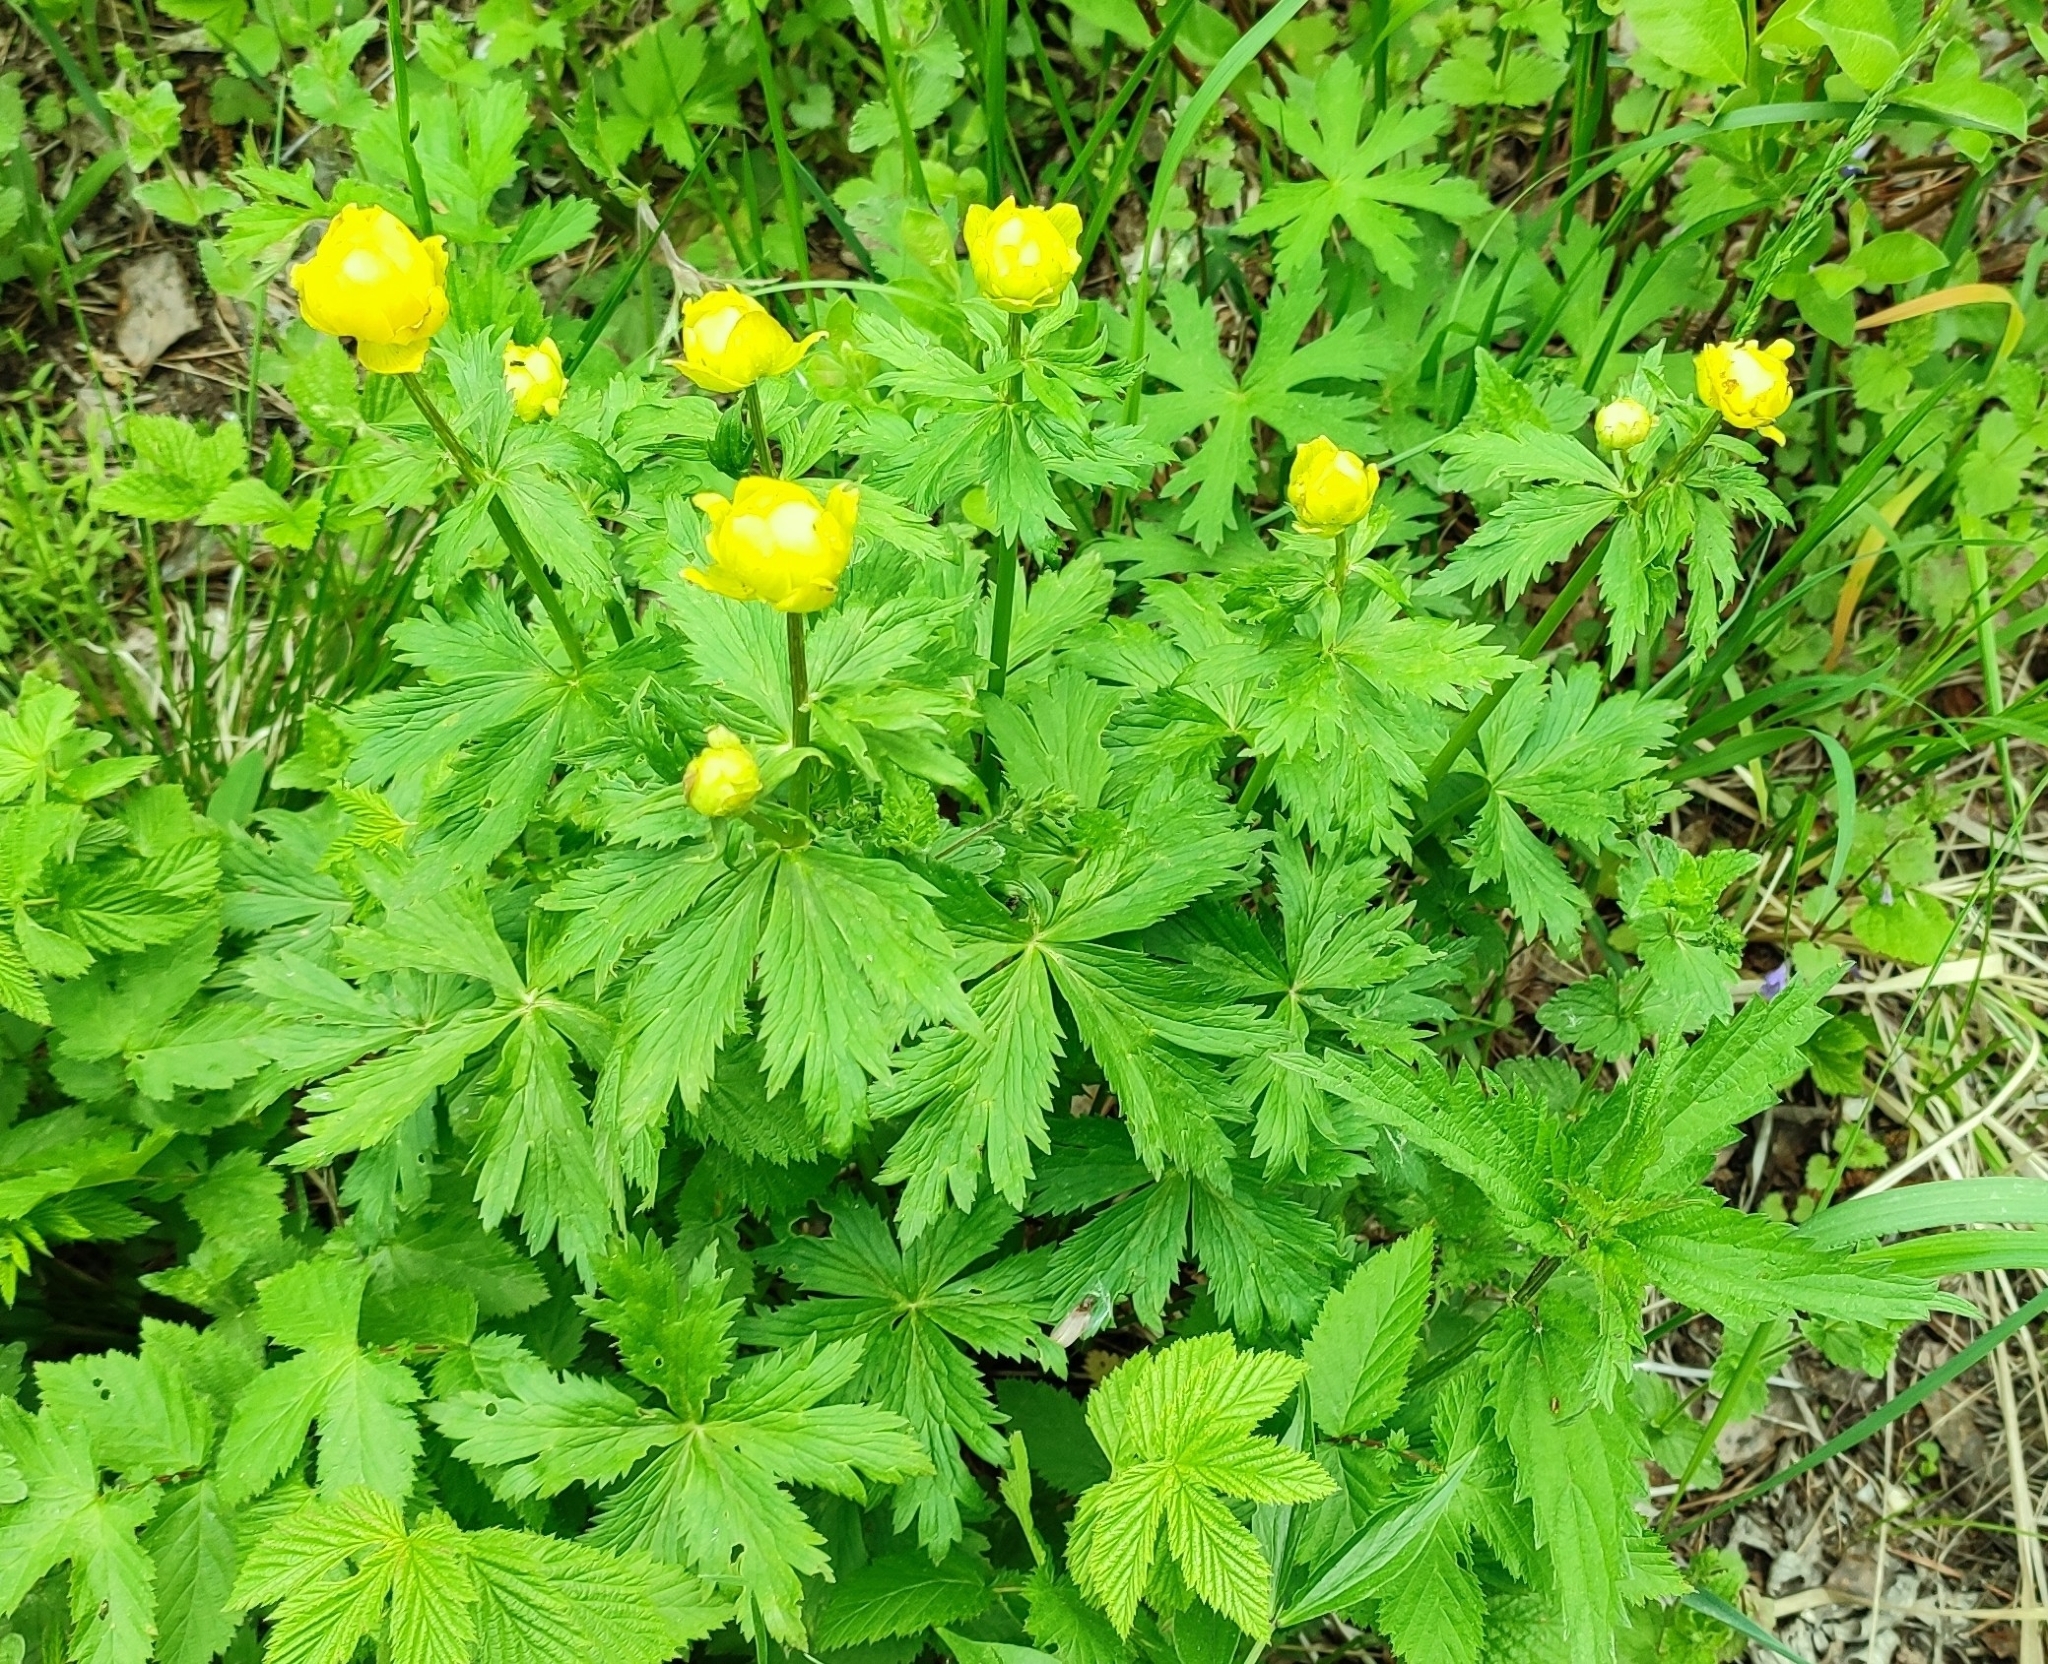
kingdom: Plantae
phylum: Tracheophyta
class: Magnoliopsida
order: Ranunculales
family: Ranunculaceae
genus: Trollius
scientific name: Trollius europaeus
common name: European globeflower
